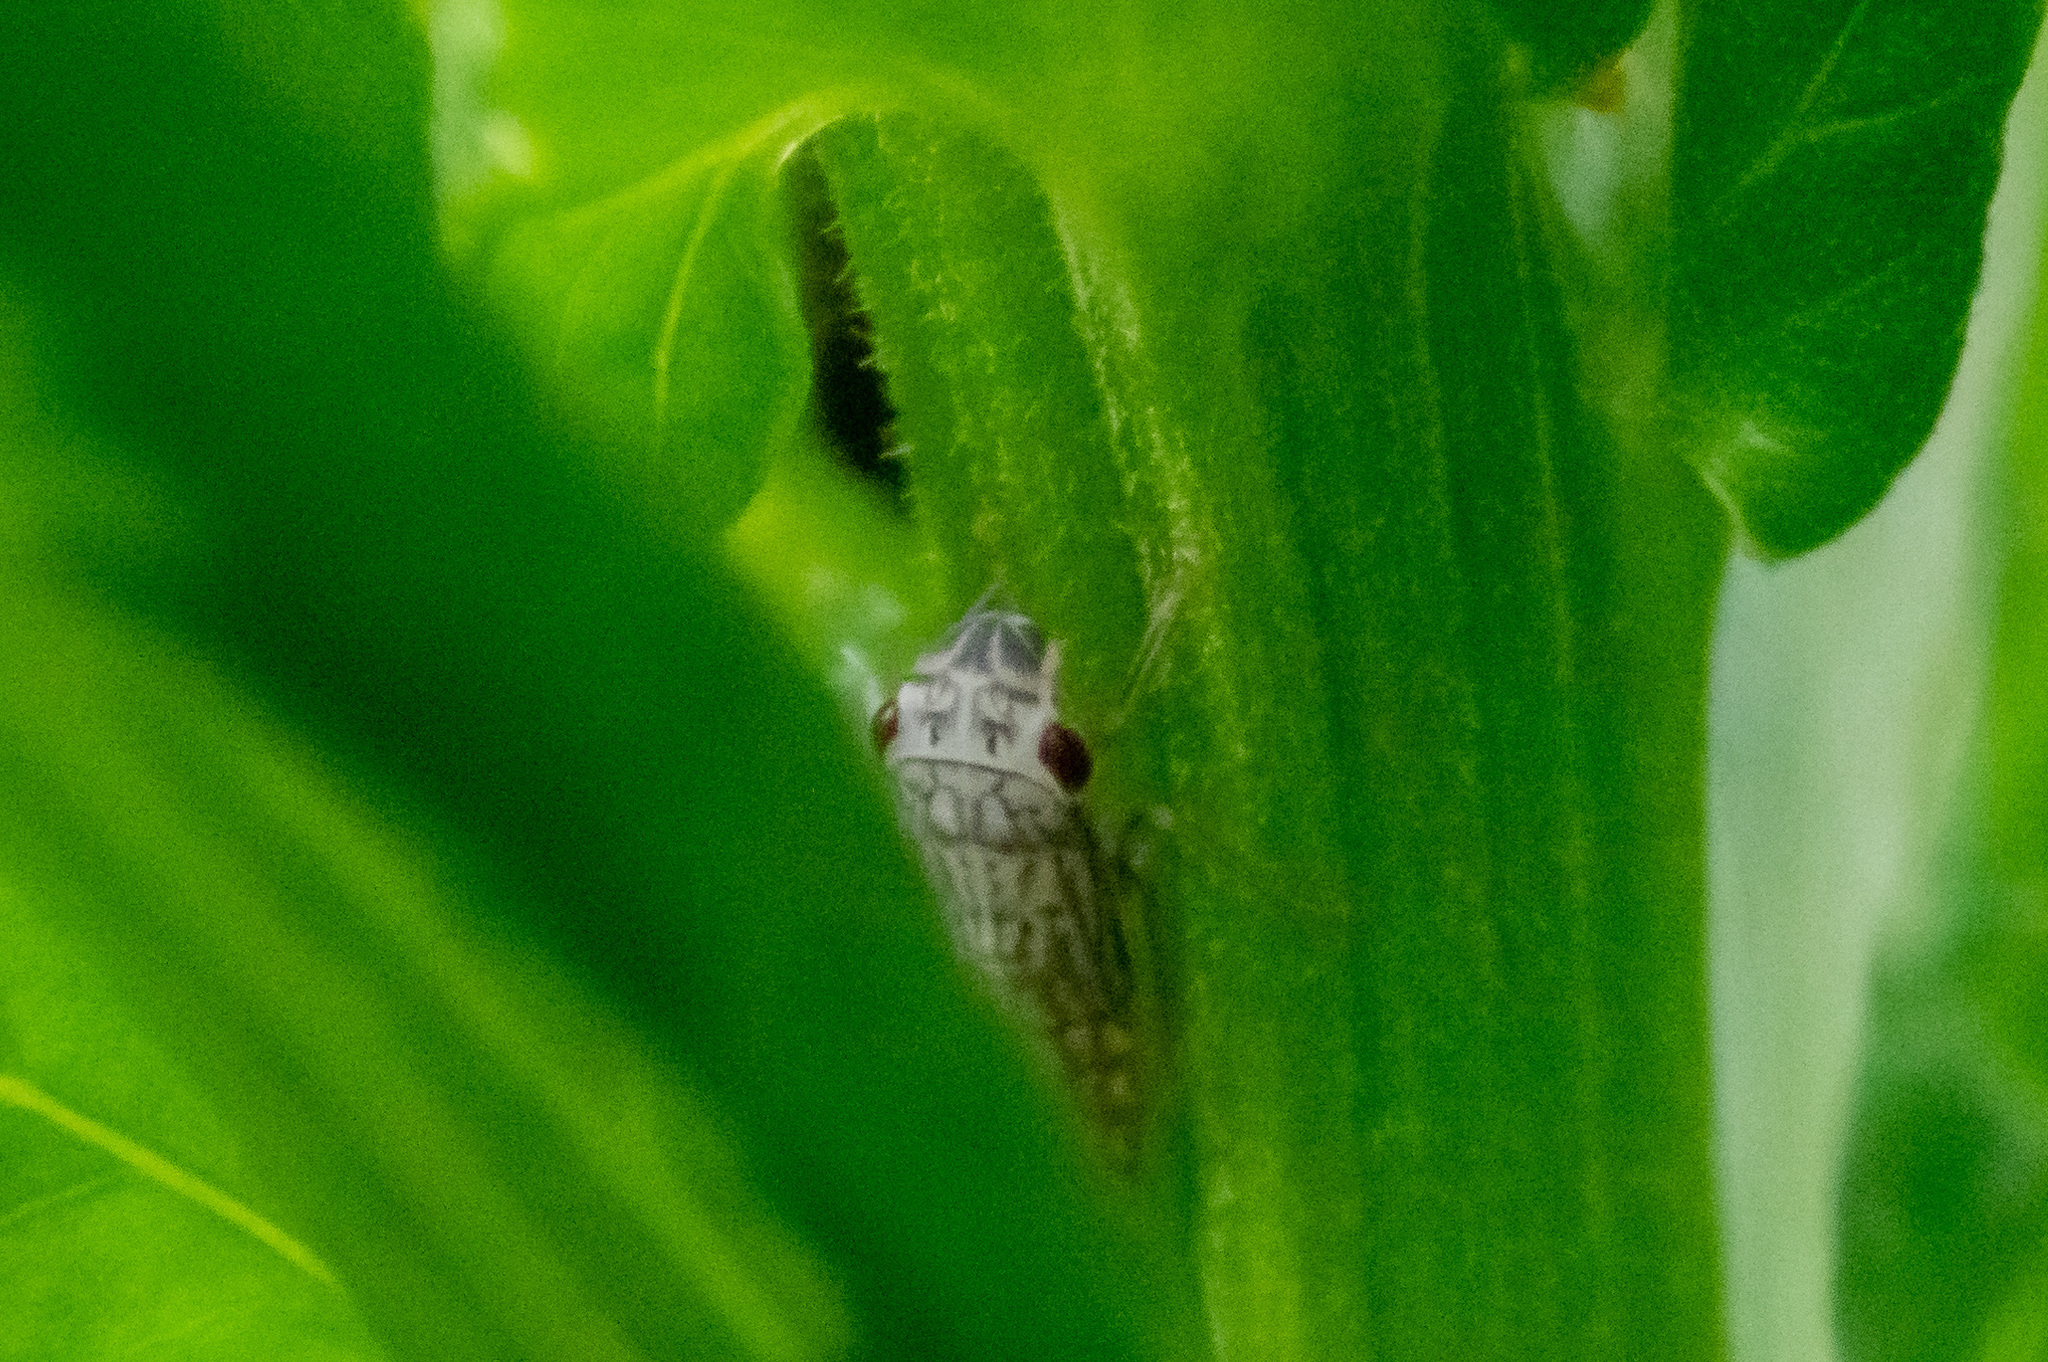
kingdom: Animalia
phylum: Arthropoda
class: Insecta
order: Hemiptera
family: Cicadellidae
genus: Oncometopia
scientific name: Oncometopia orbona
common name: Broad-headed sharpshooter
